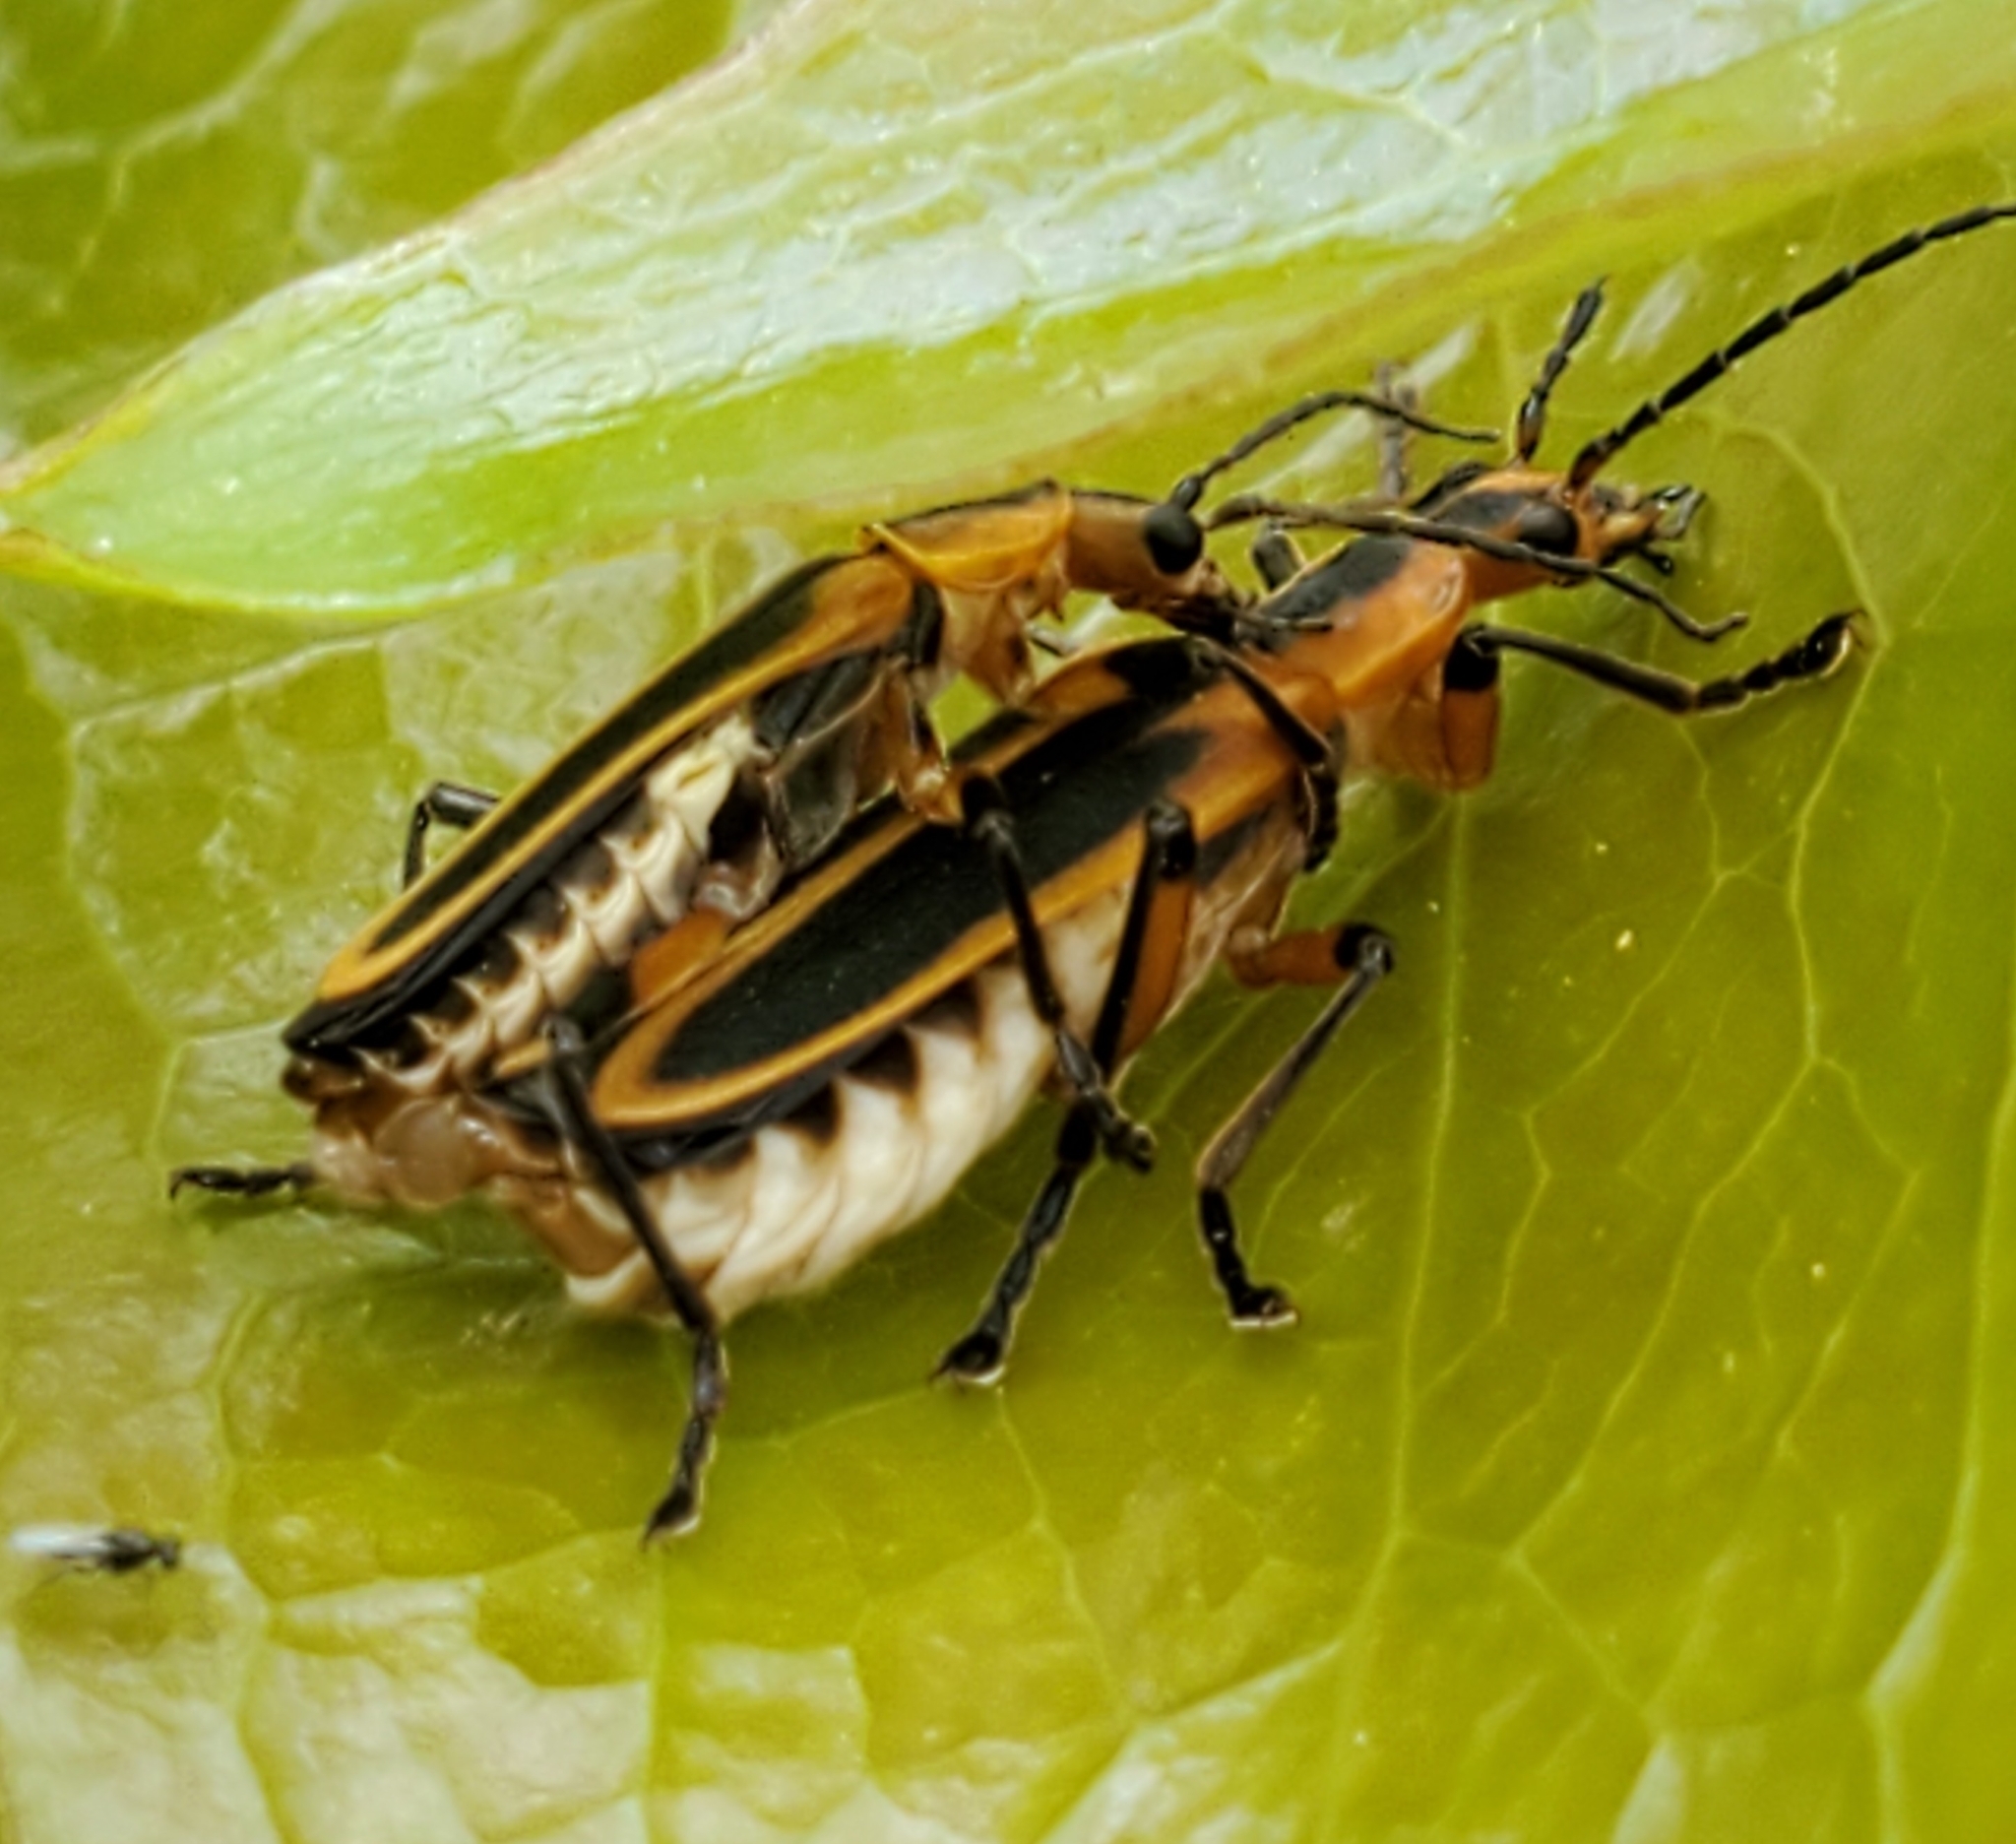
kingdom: Animalia
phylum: Arthropoda
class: Insecta
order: Coleoptera
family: Cantharidae
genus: Chauliognathus
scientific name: Chauliognathus marginatus
